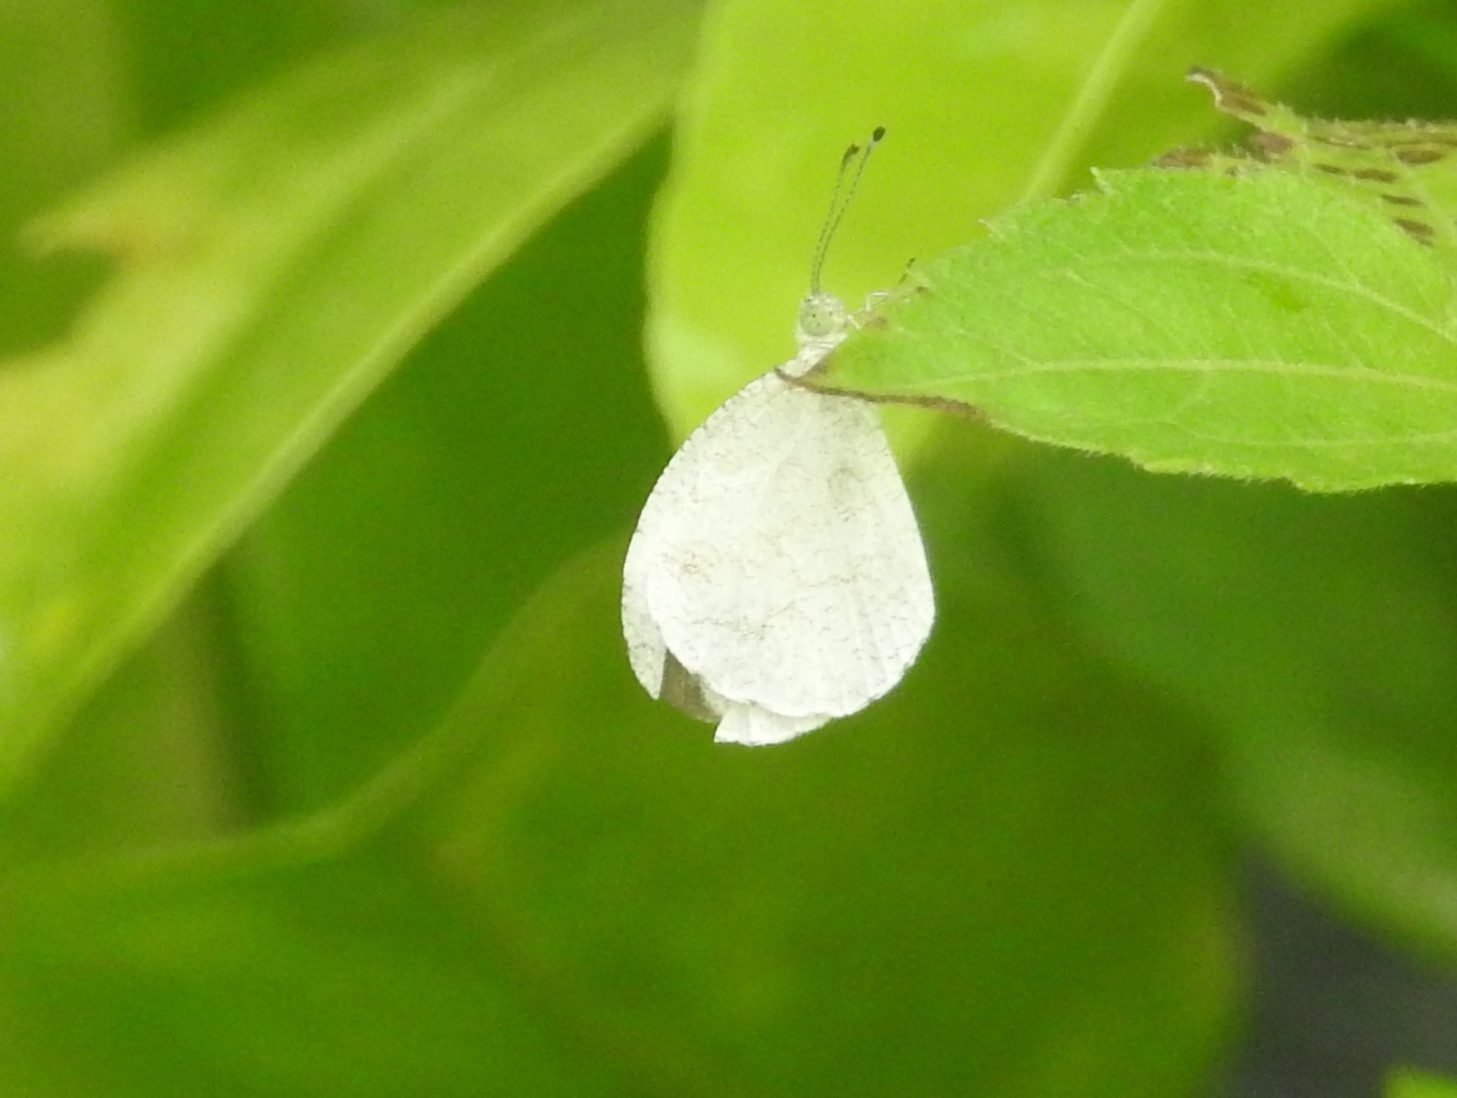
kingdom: Animalia
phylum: Arthropoda
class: Insecta
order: Lepidoptera
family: Pieridae
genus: Leptosia
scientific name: Leptosia nina
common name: Psyche
